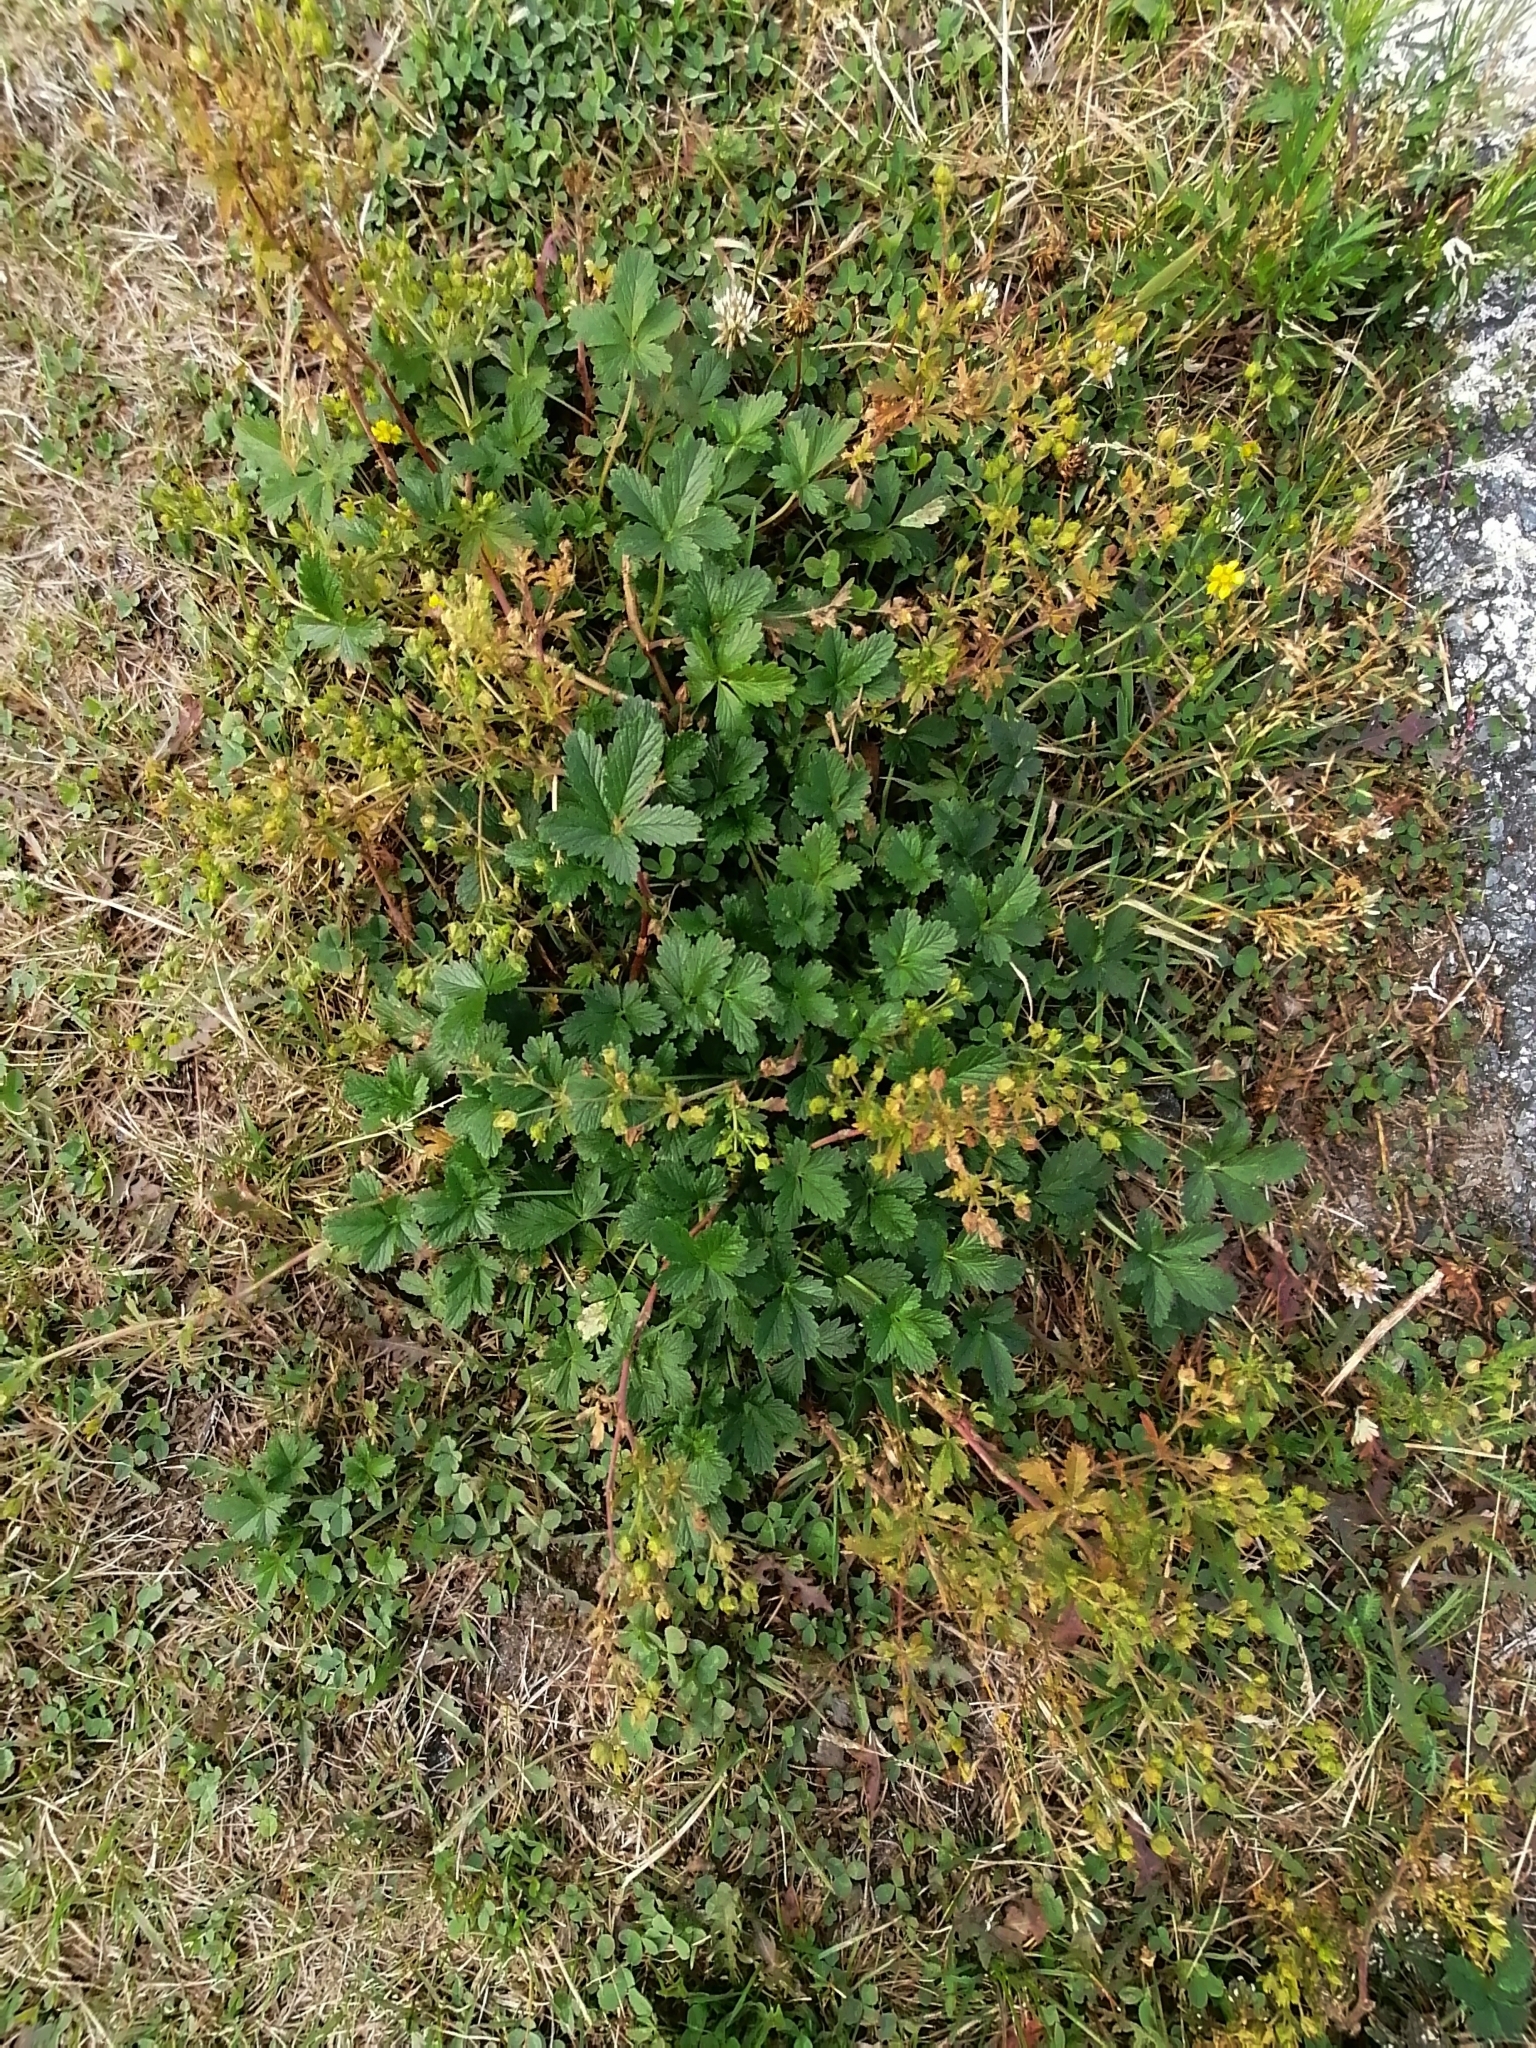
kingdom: Plantae
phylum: Tracheophyta
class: Magnoliopsida
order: Rosales
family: Rosaceae
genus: Potentilla
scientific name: Potentilla intermedia
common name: Downy cinquefoil
